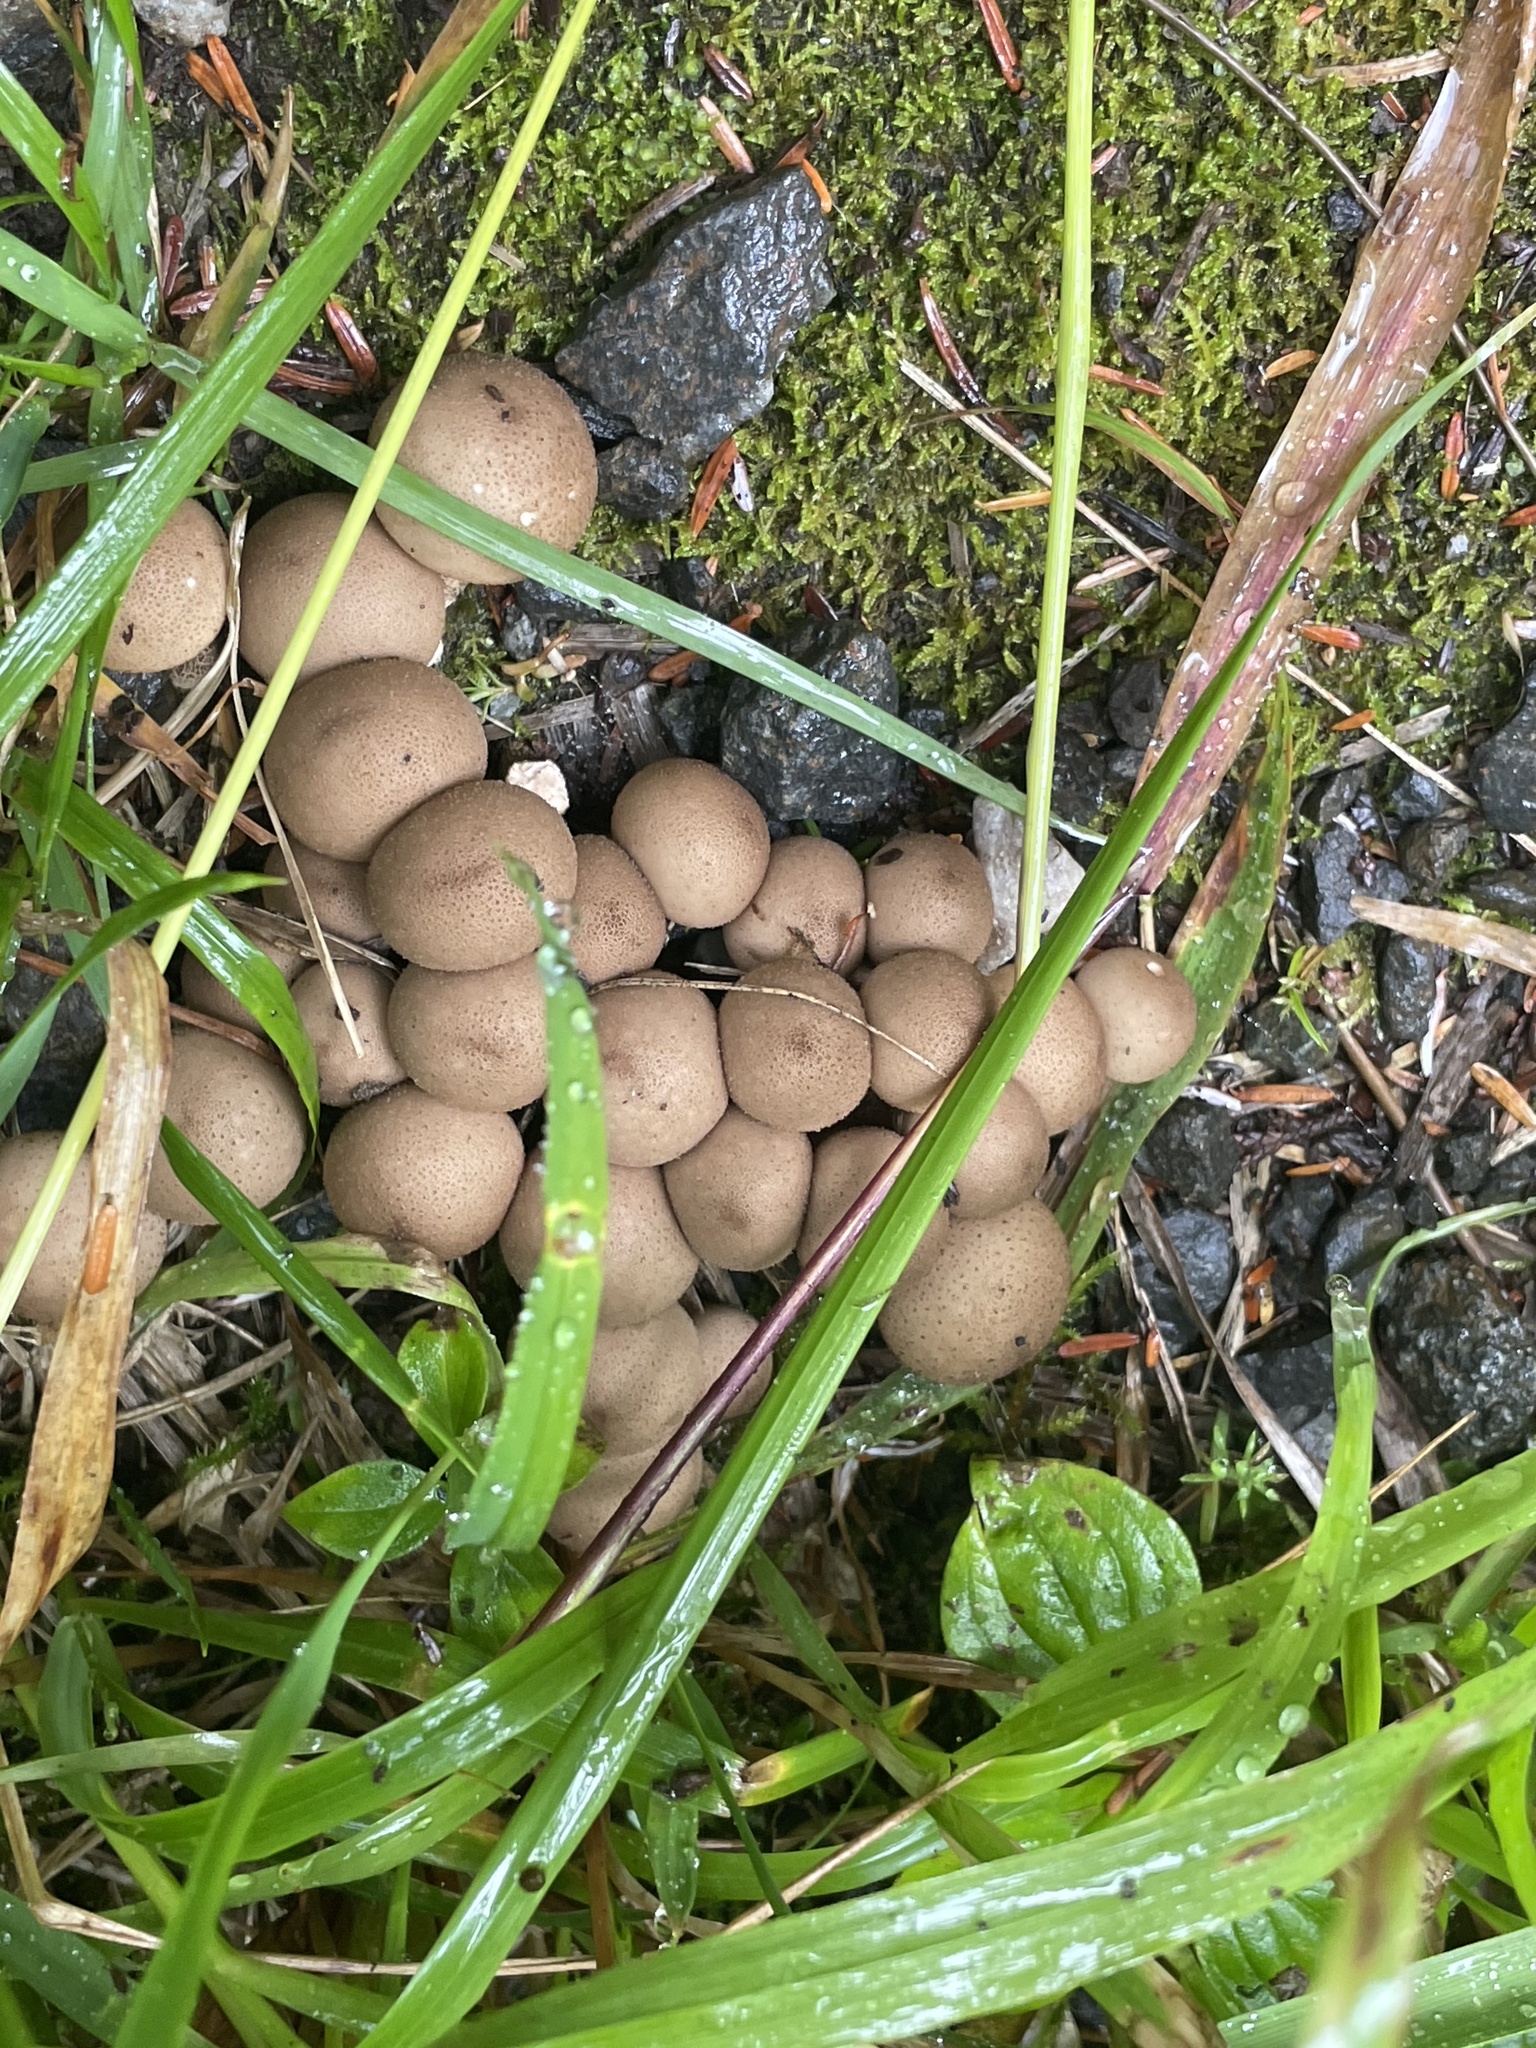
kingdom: Fungi
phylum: Basidiomycota
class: Agaricomycetes
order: Agaricales
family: Lycoperdaceae
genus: Apioperdon
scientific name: Apioperdon pyriforme
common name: Pear-shaped puffball
